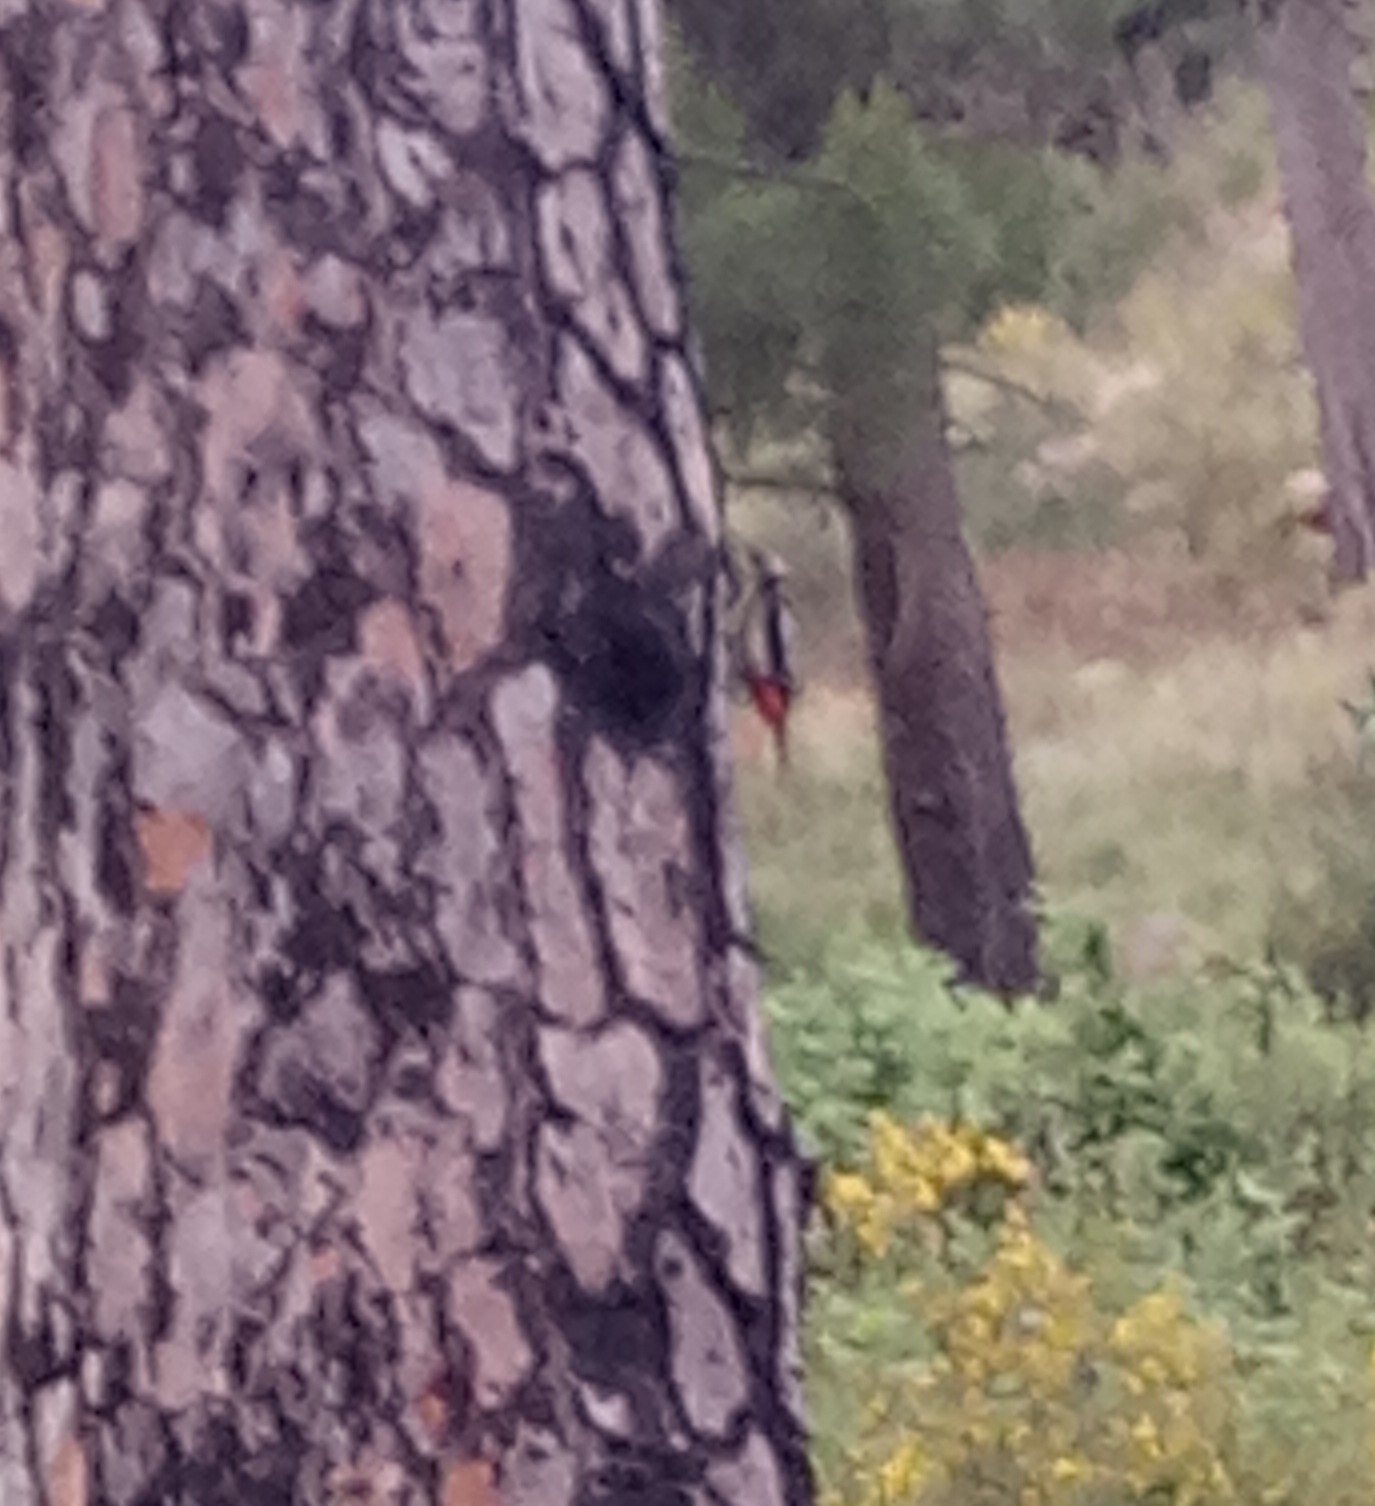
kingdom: Animalia
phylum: Chordata
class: Aves
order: Piciformes
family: Picidae
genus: Dendrocopos
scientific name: Dendrocopos major
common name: Great spotted woodpecker
